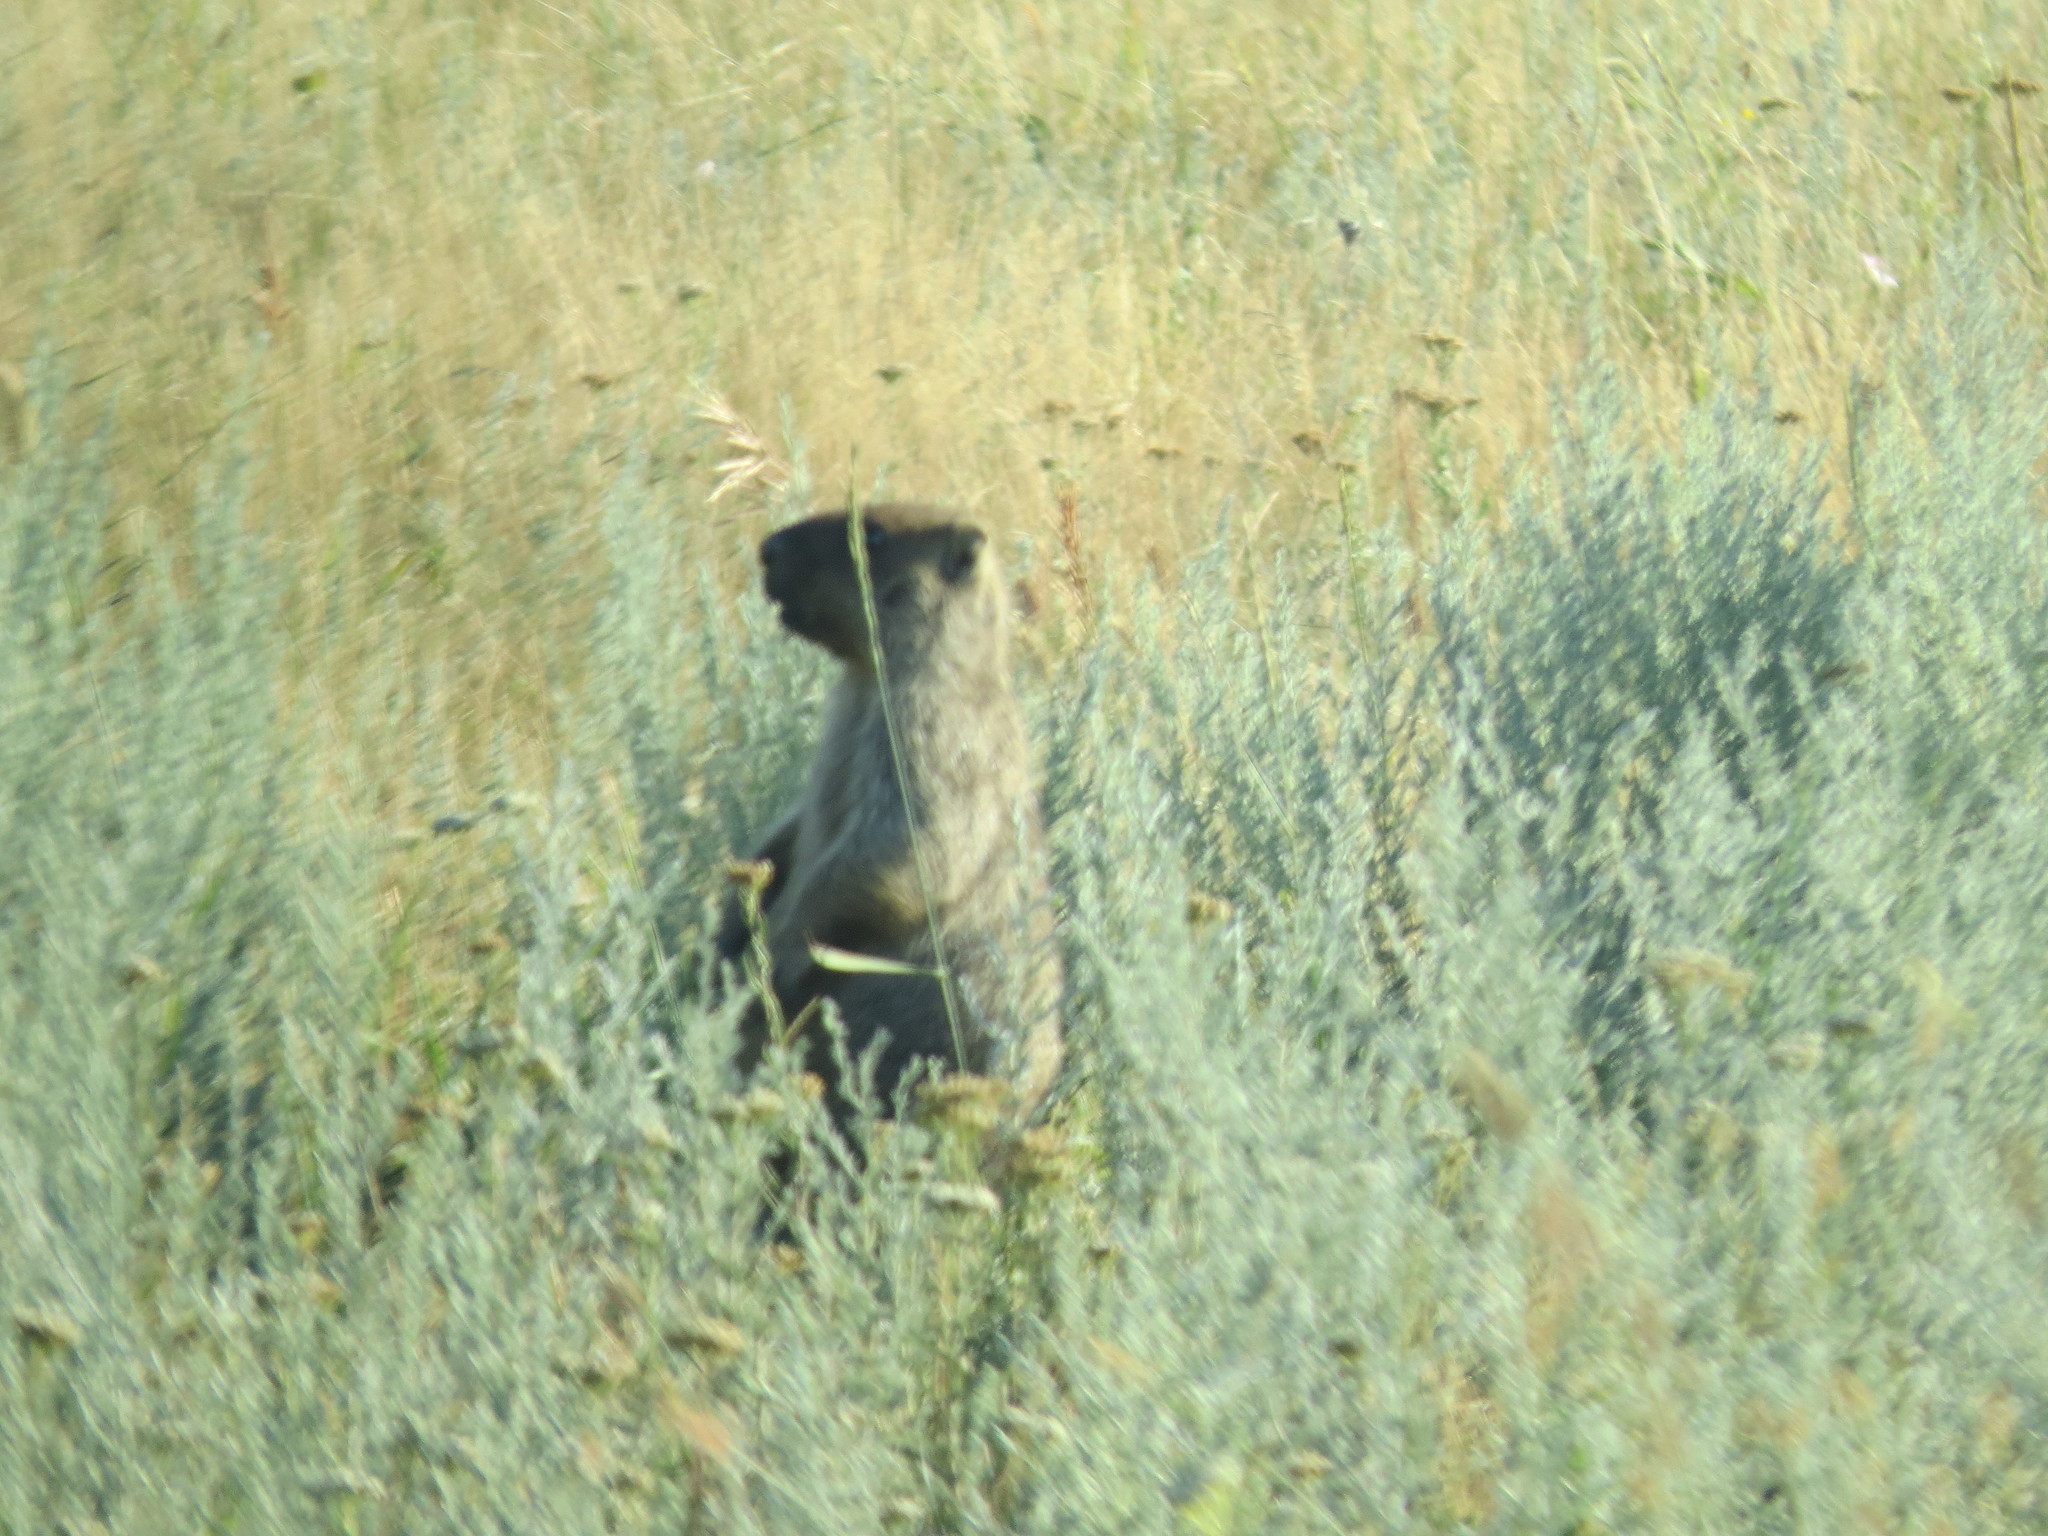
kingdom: Animalia
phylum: Chordata
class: Mammalia
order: Rodentia
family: Sciuridae
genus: Marmota
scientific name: Marmota bobak
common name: Bobak marmot
